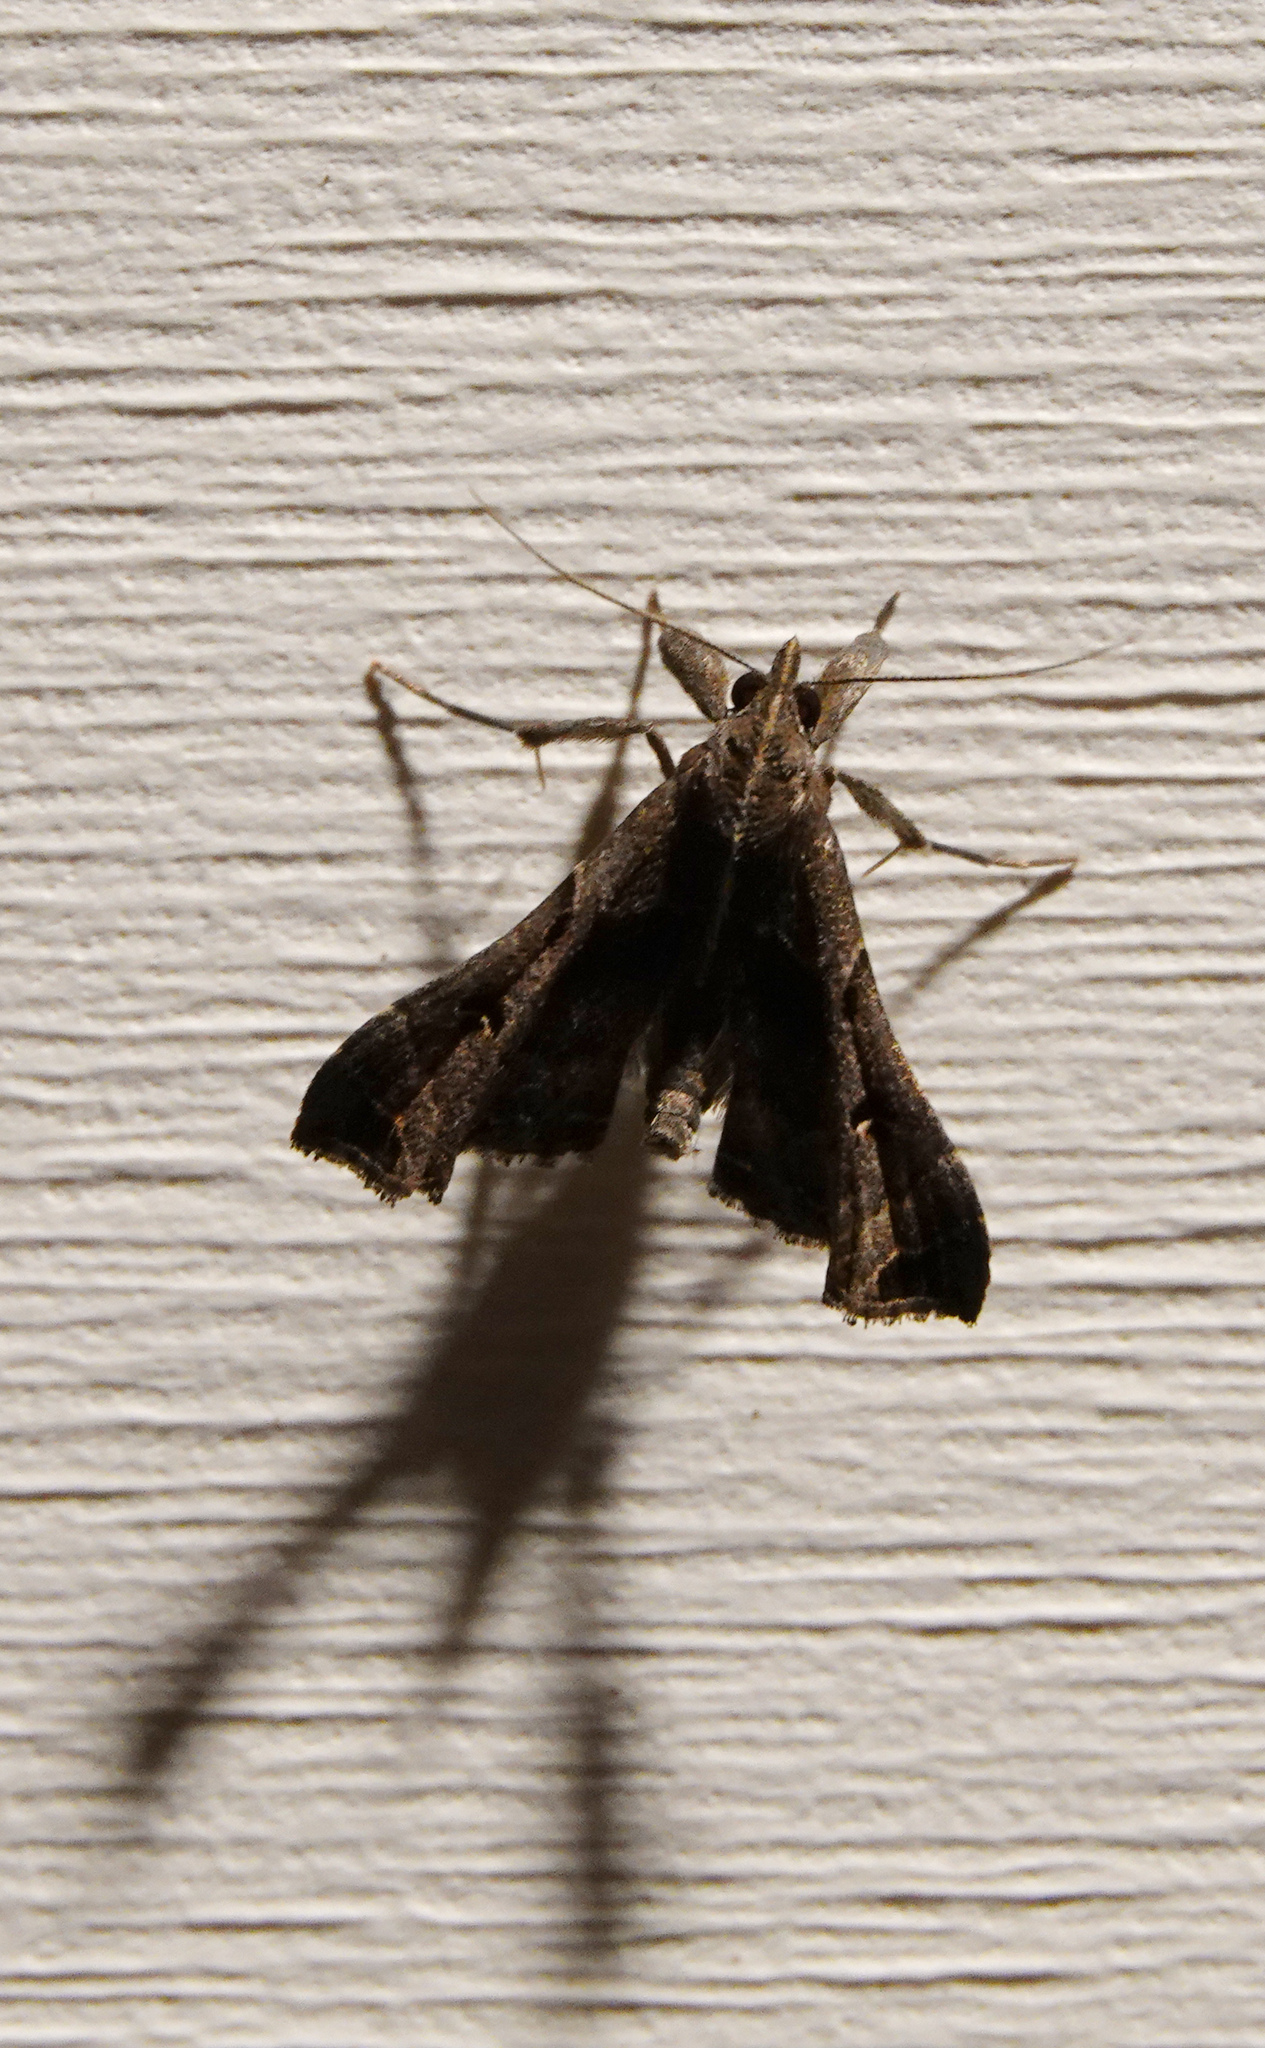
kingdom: Animalia
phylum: Arthropoda
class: Insecta
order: Lepidoptera
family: Erebidae
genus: Palthis
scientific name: Palthis asopialis
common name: Faint-spotted palthis moth
